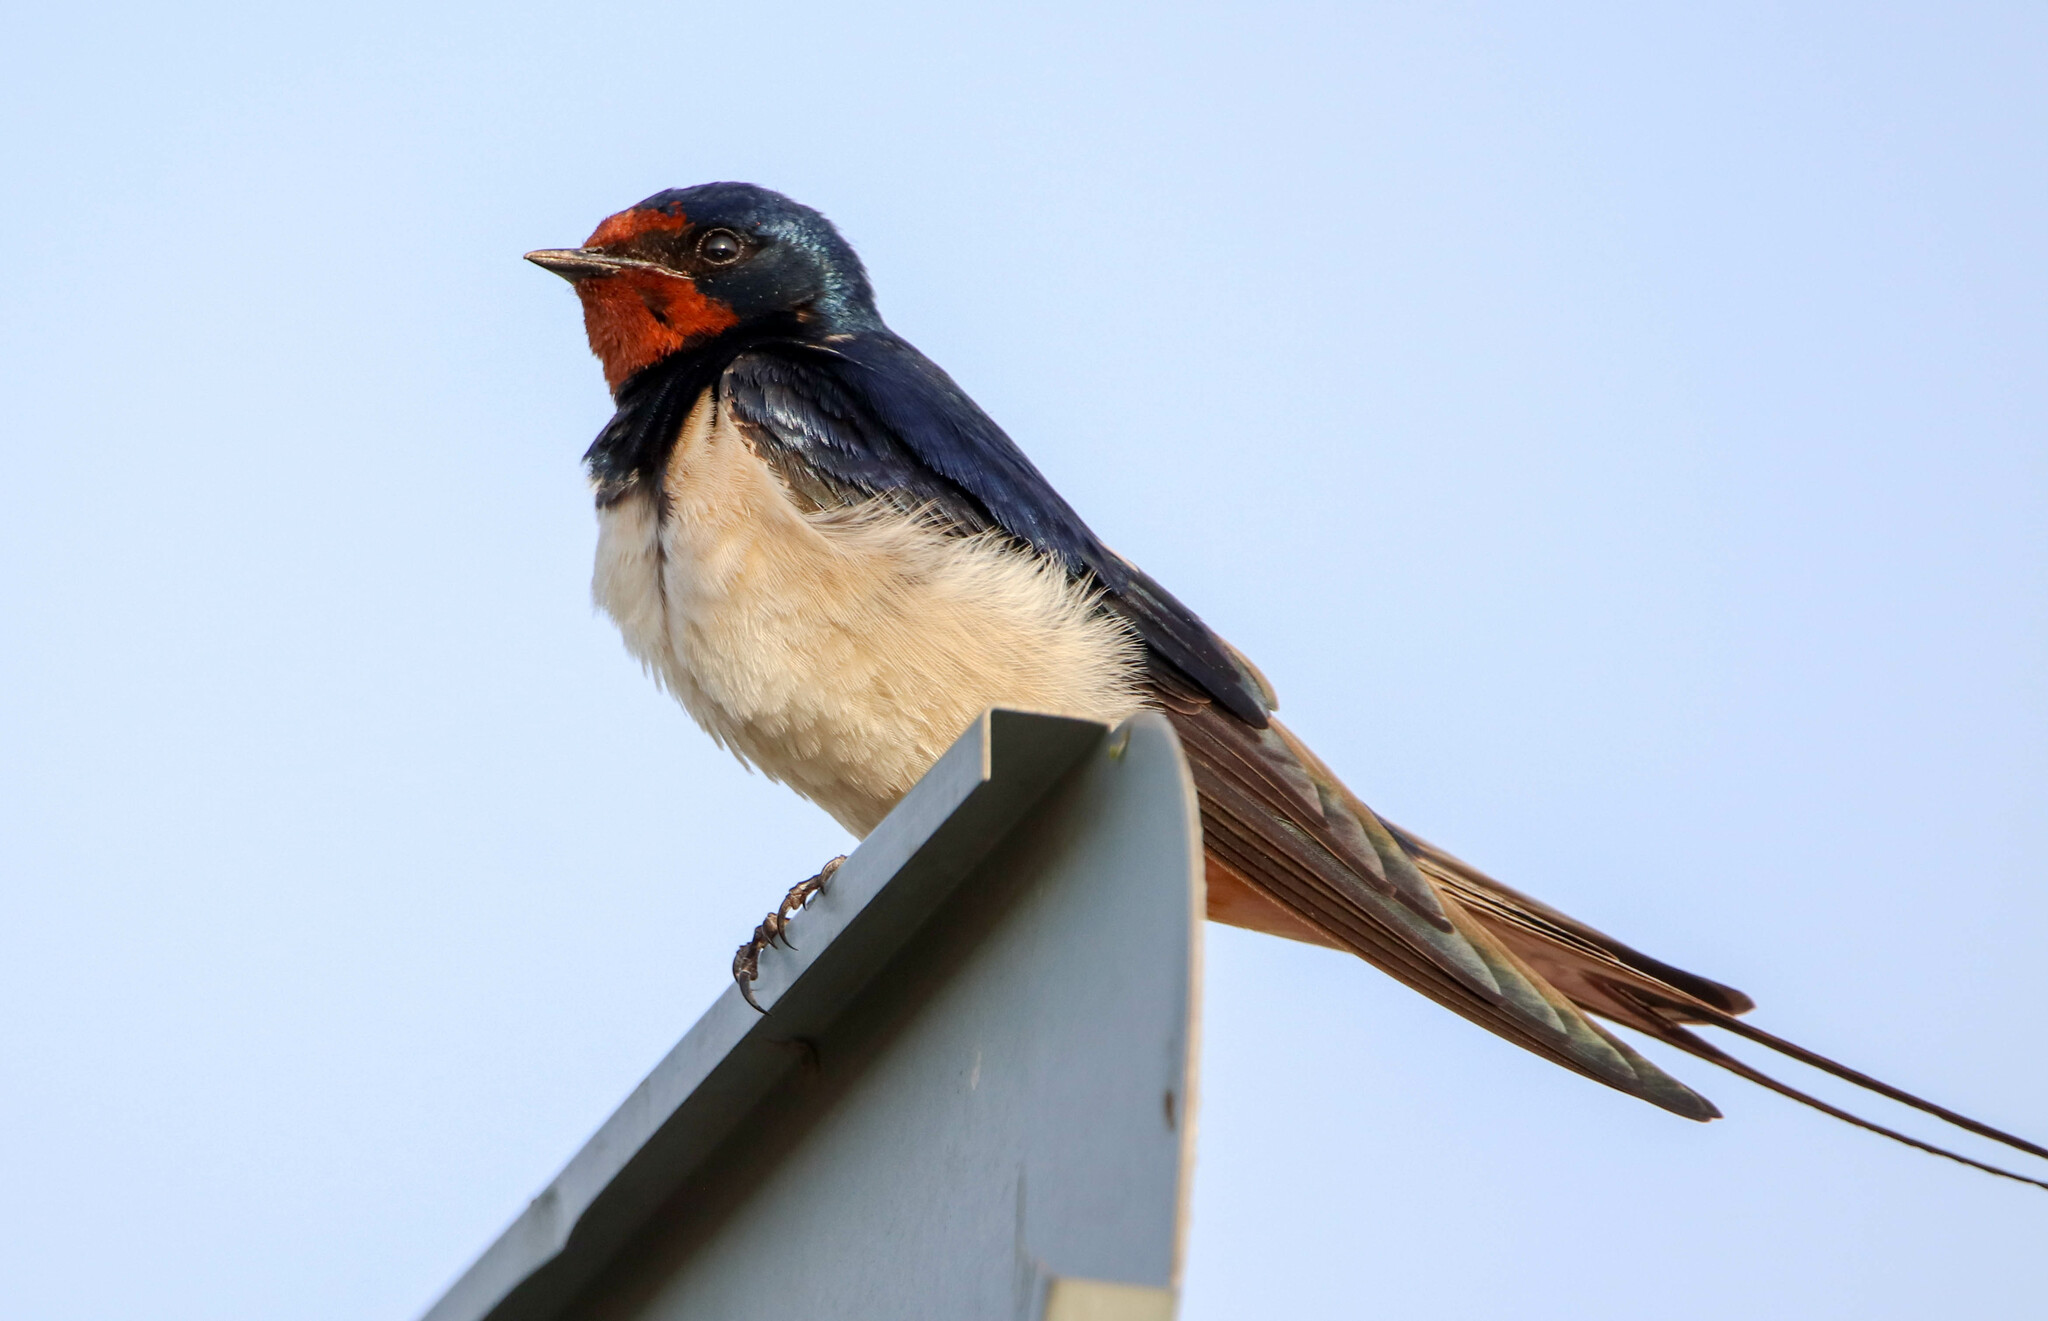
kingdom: Animalia
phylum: Chordata
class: Aves
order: Passeriformes
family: Hirundinidae
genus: Hirundo
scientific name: Hirundo rustica
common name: Barn swallow
